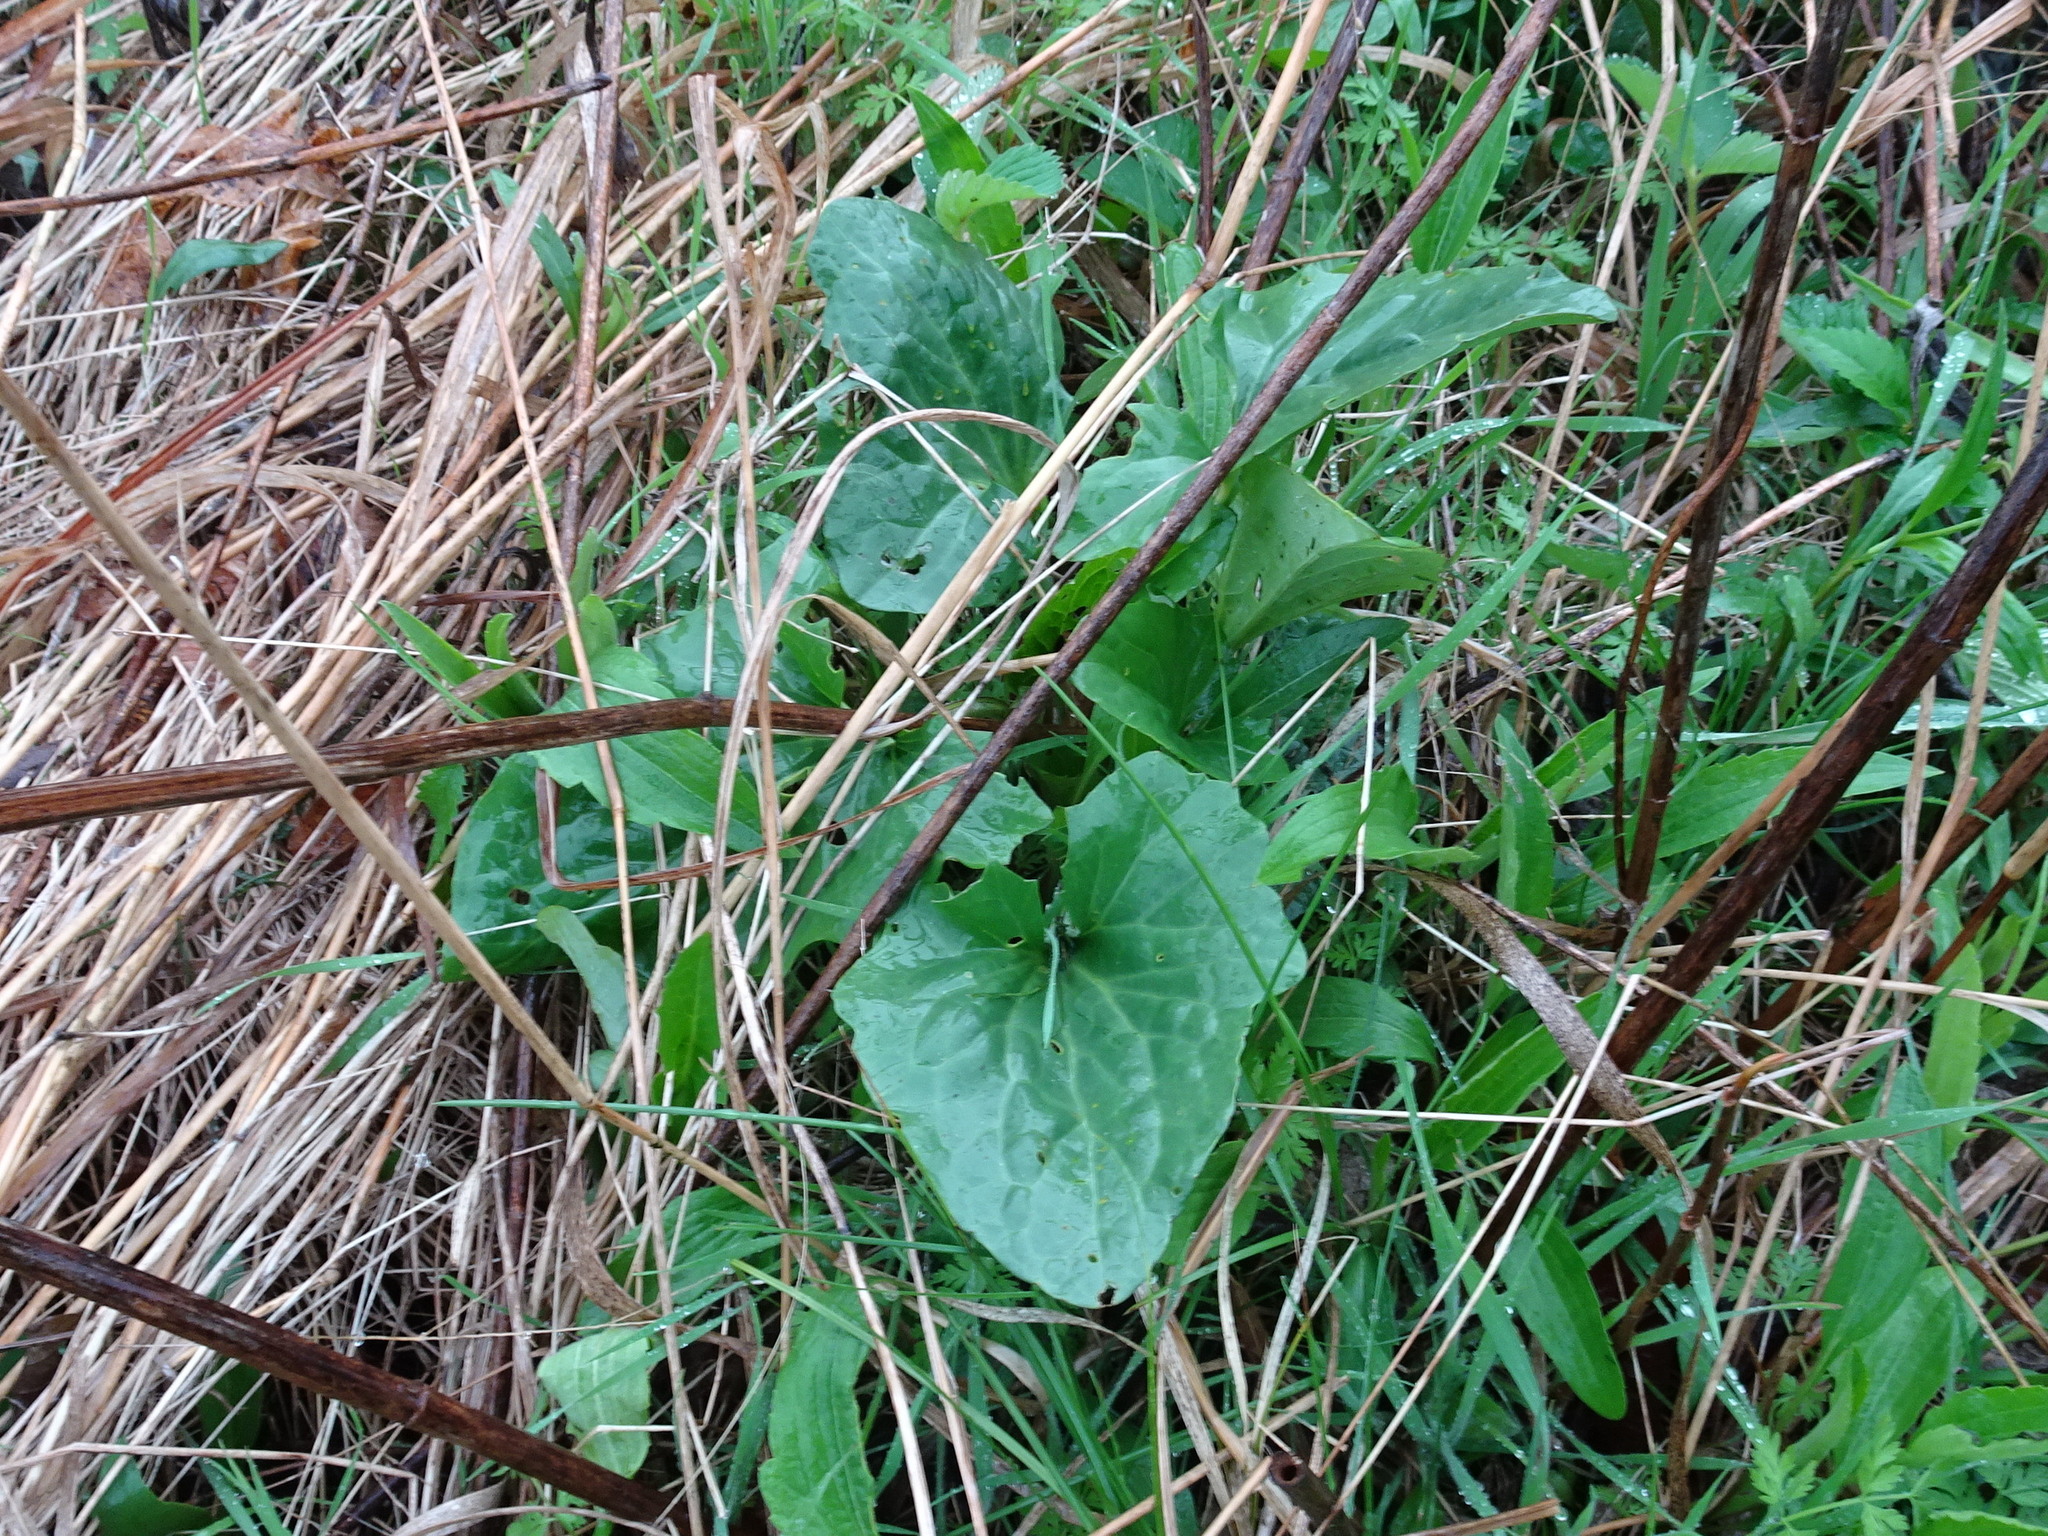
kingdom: Plantae
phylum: Tracheophyta
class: Magnoliopsida
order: Asterales
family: Asteraceae
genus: Arnoglossum
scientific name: Arnoglossum atriplicifolium
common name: Pale indian-plantain
